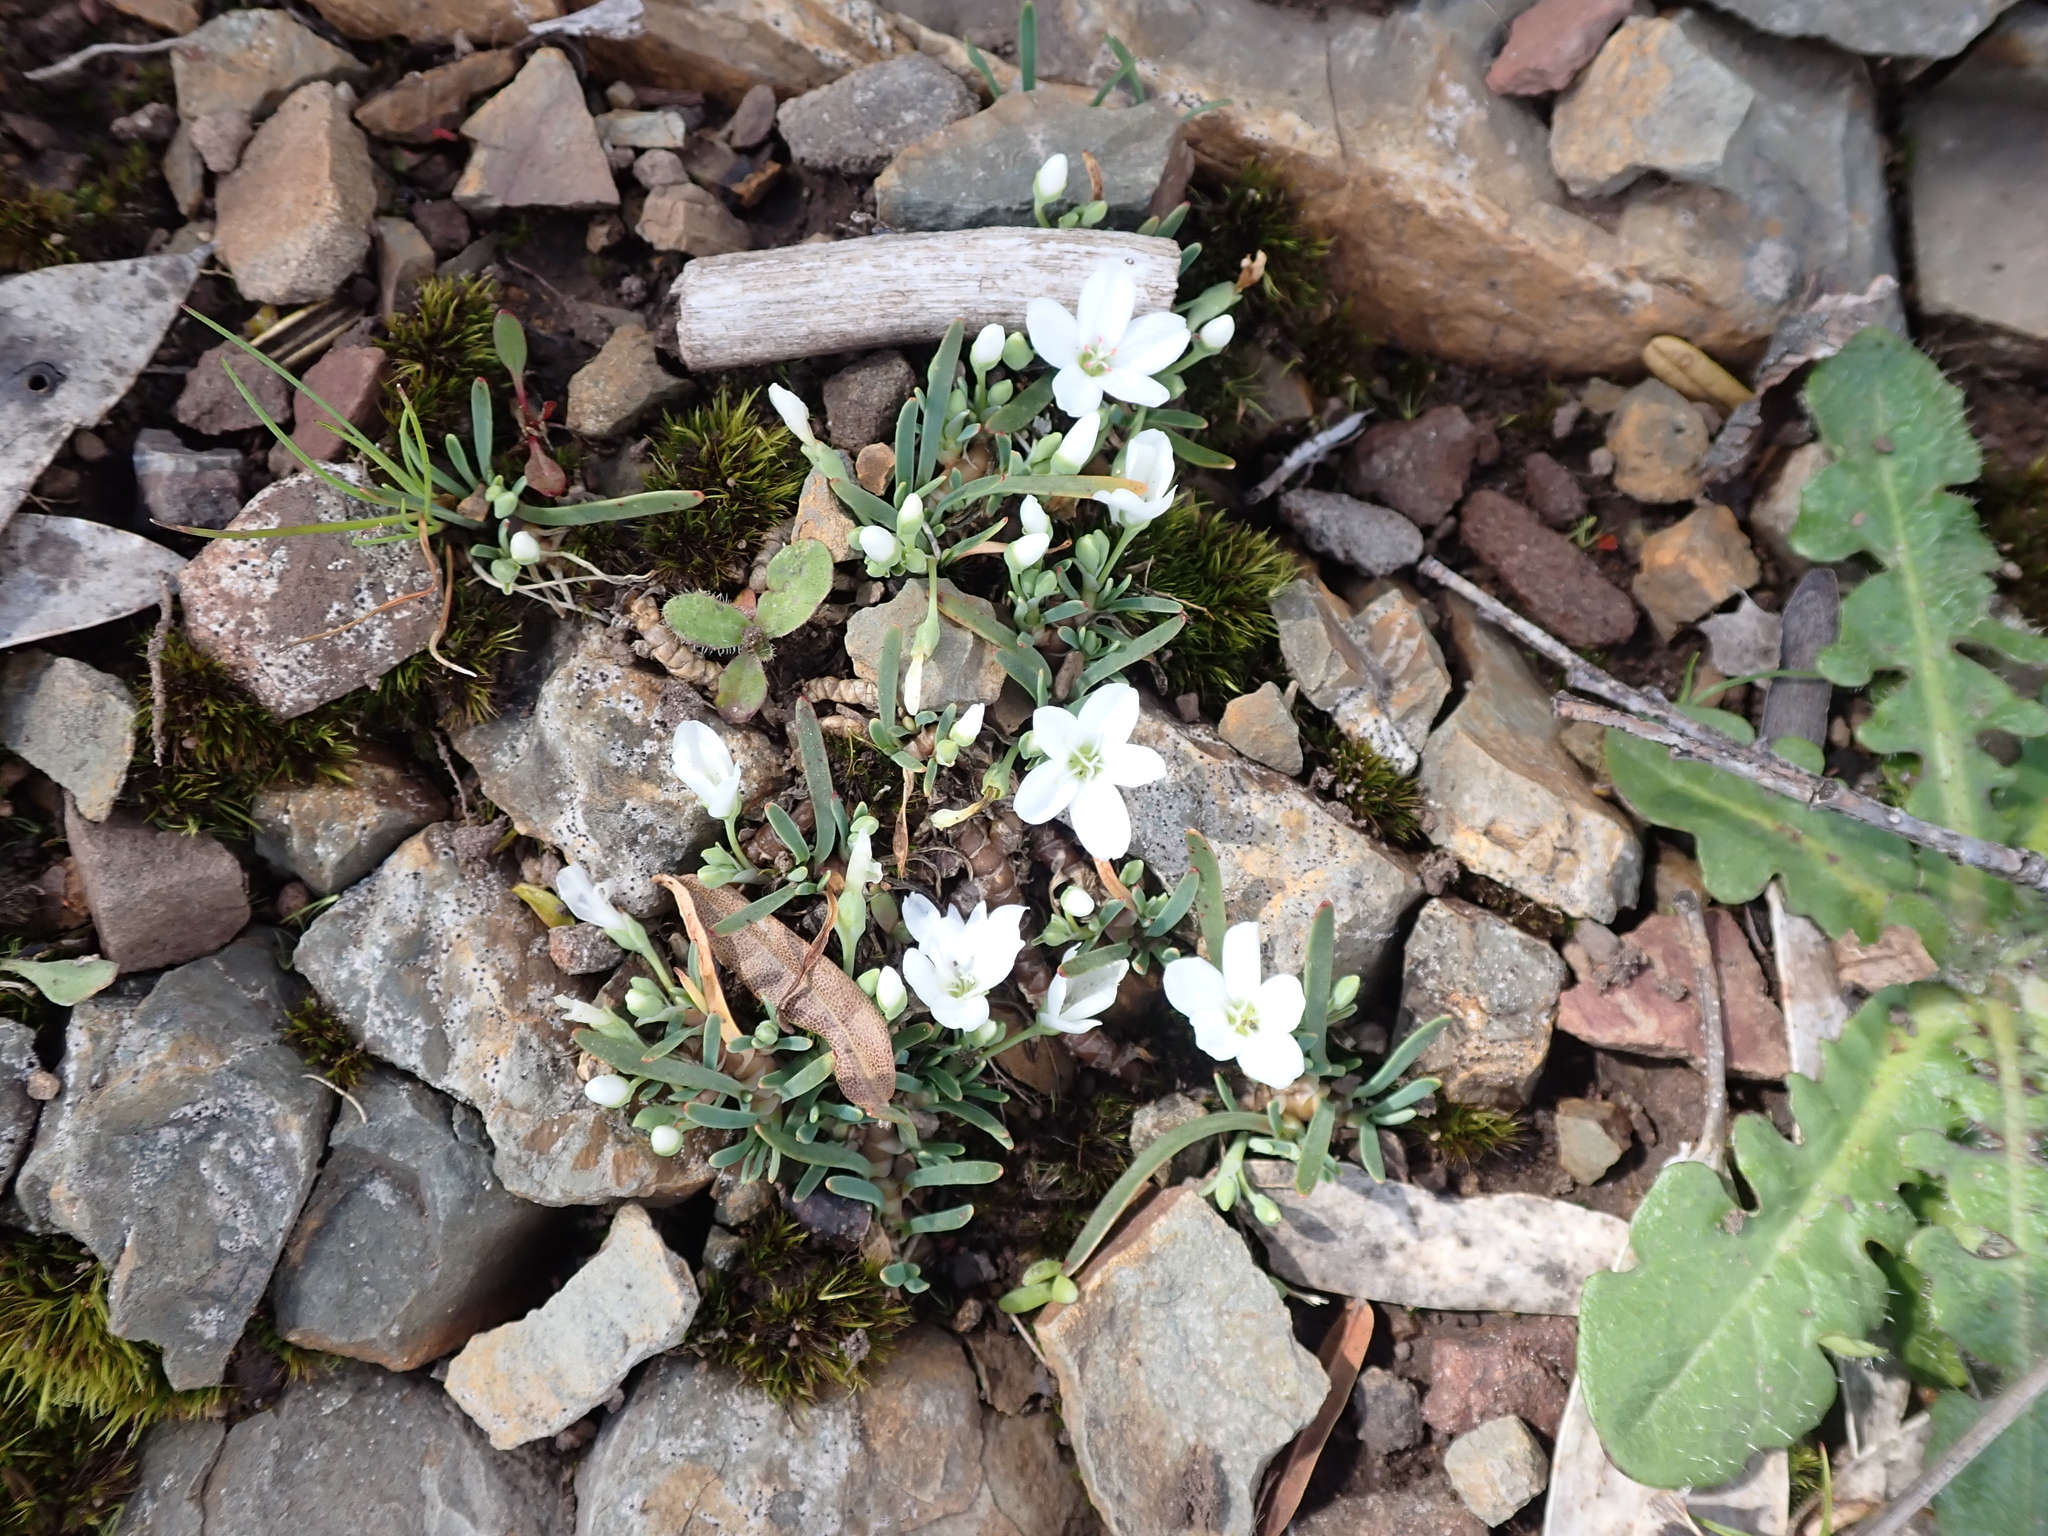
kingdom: Plantae
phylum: Tracheophyta
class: Magnoliopsida
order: Caryophyllales
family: Montiaceae
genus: Montia
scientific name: Montia australasica
